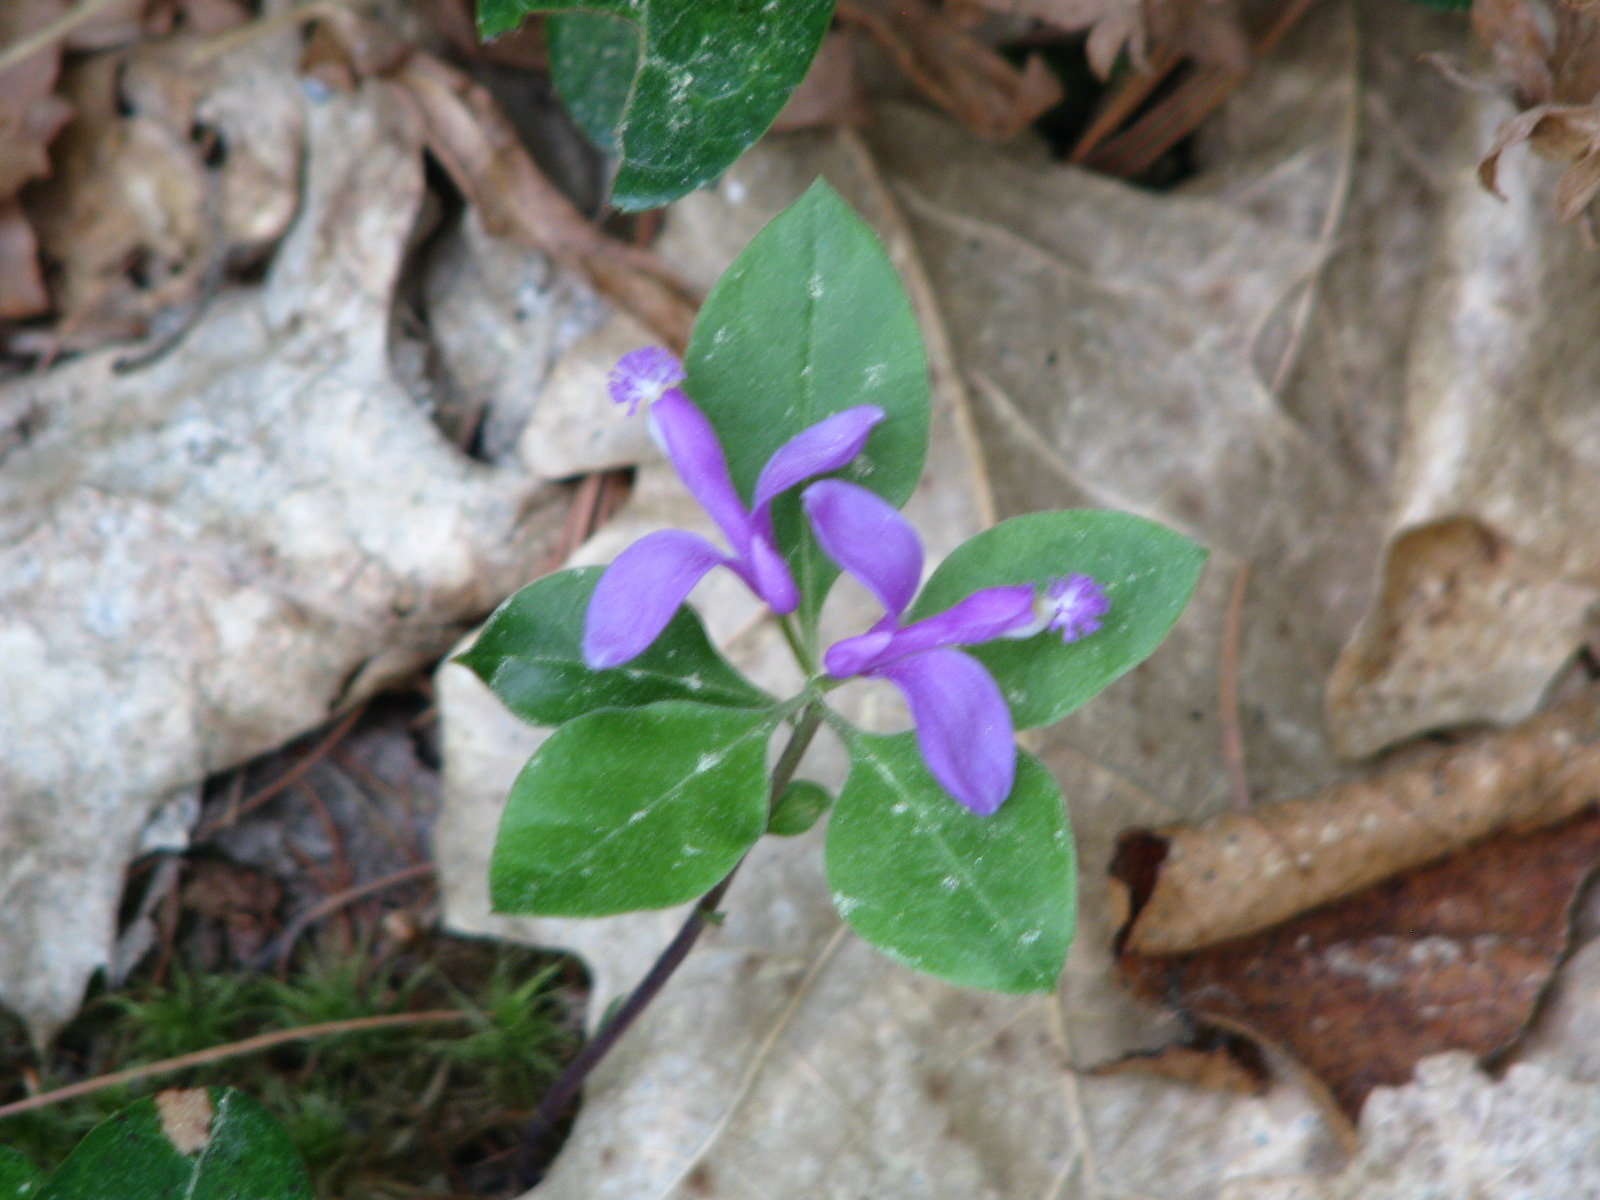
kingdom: Plantae
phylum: Tracheophyta
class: Magnoliopsida
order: Fabales
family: Polygalaceae
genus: Polygaloides
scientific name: Polygaloides paucifolia
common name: Bird-on-the-wing
